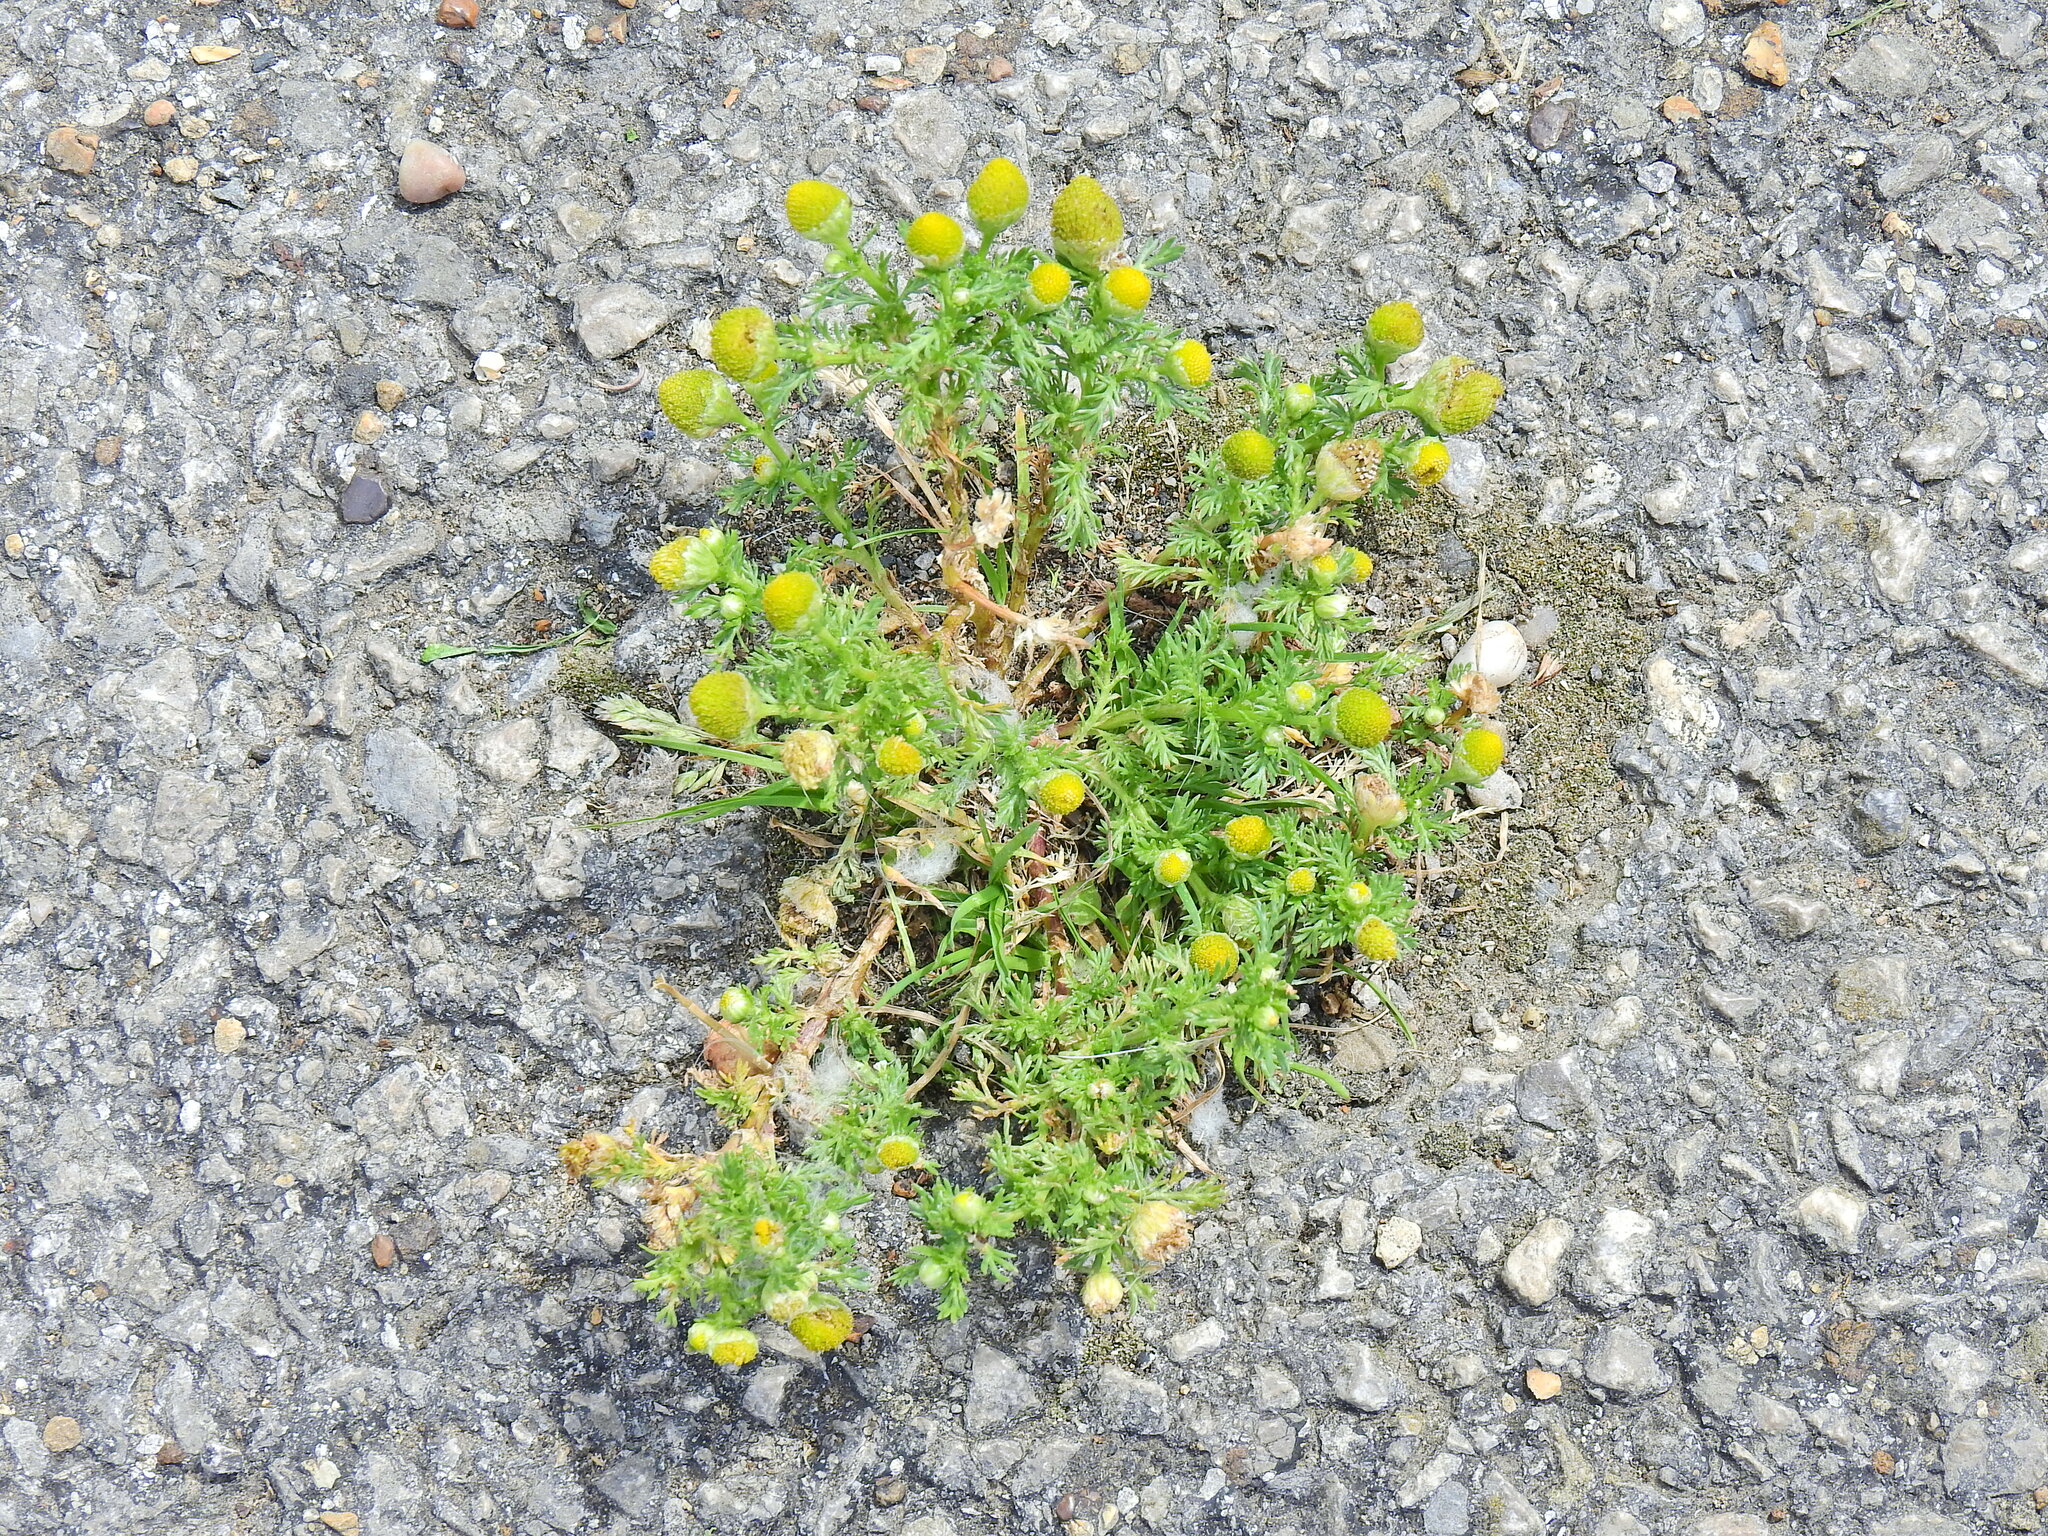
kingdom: Plantae
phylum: Tracheophyta
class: Magnoliopsida
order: Asterales
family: Asteraceae
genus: Matricaria
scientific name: Matricaria discoidea
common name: Disc mayweed
